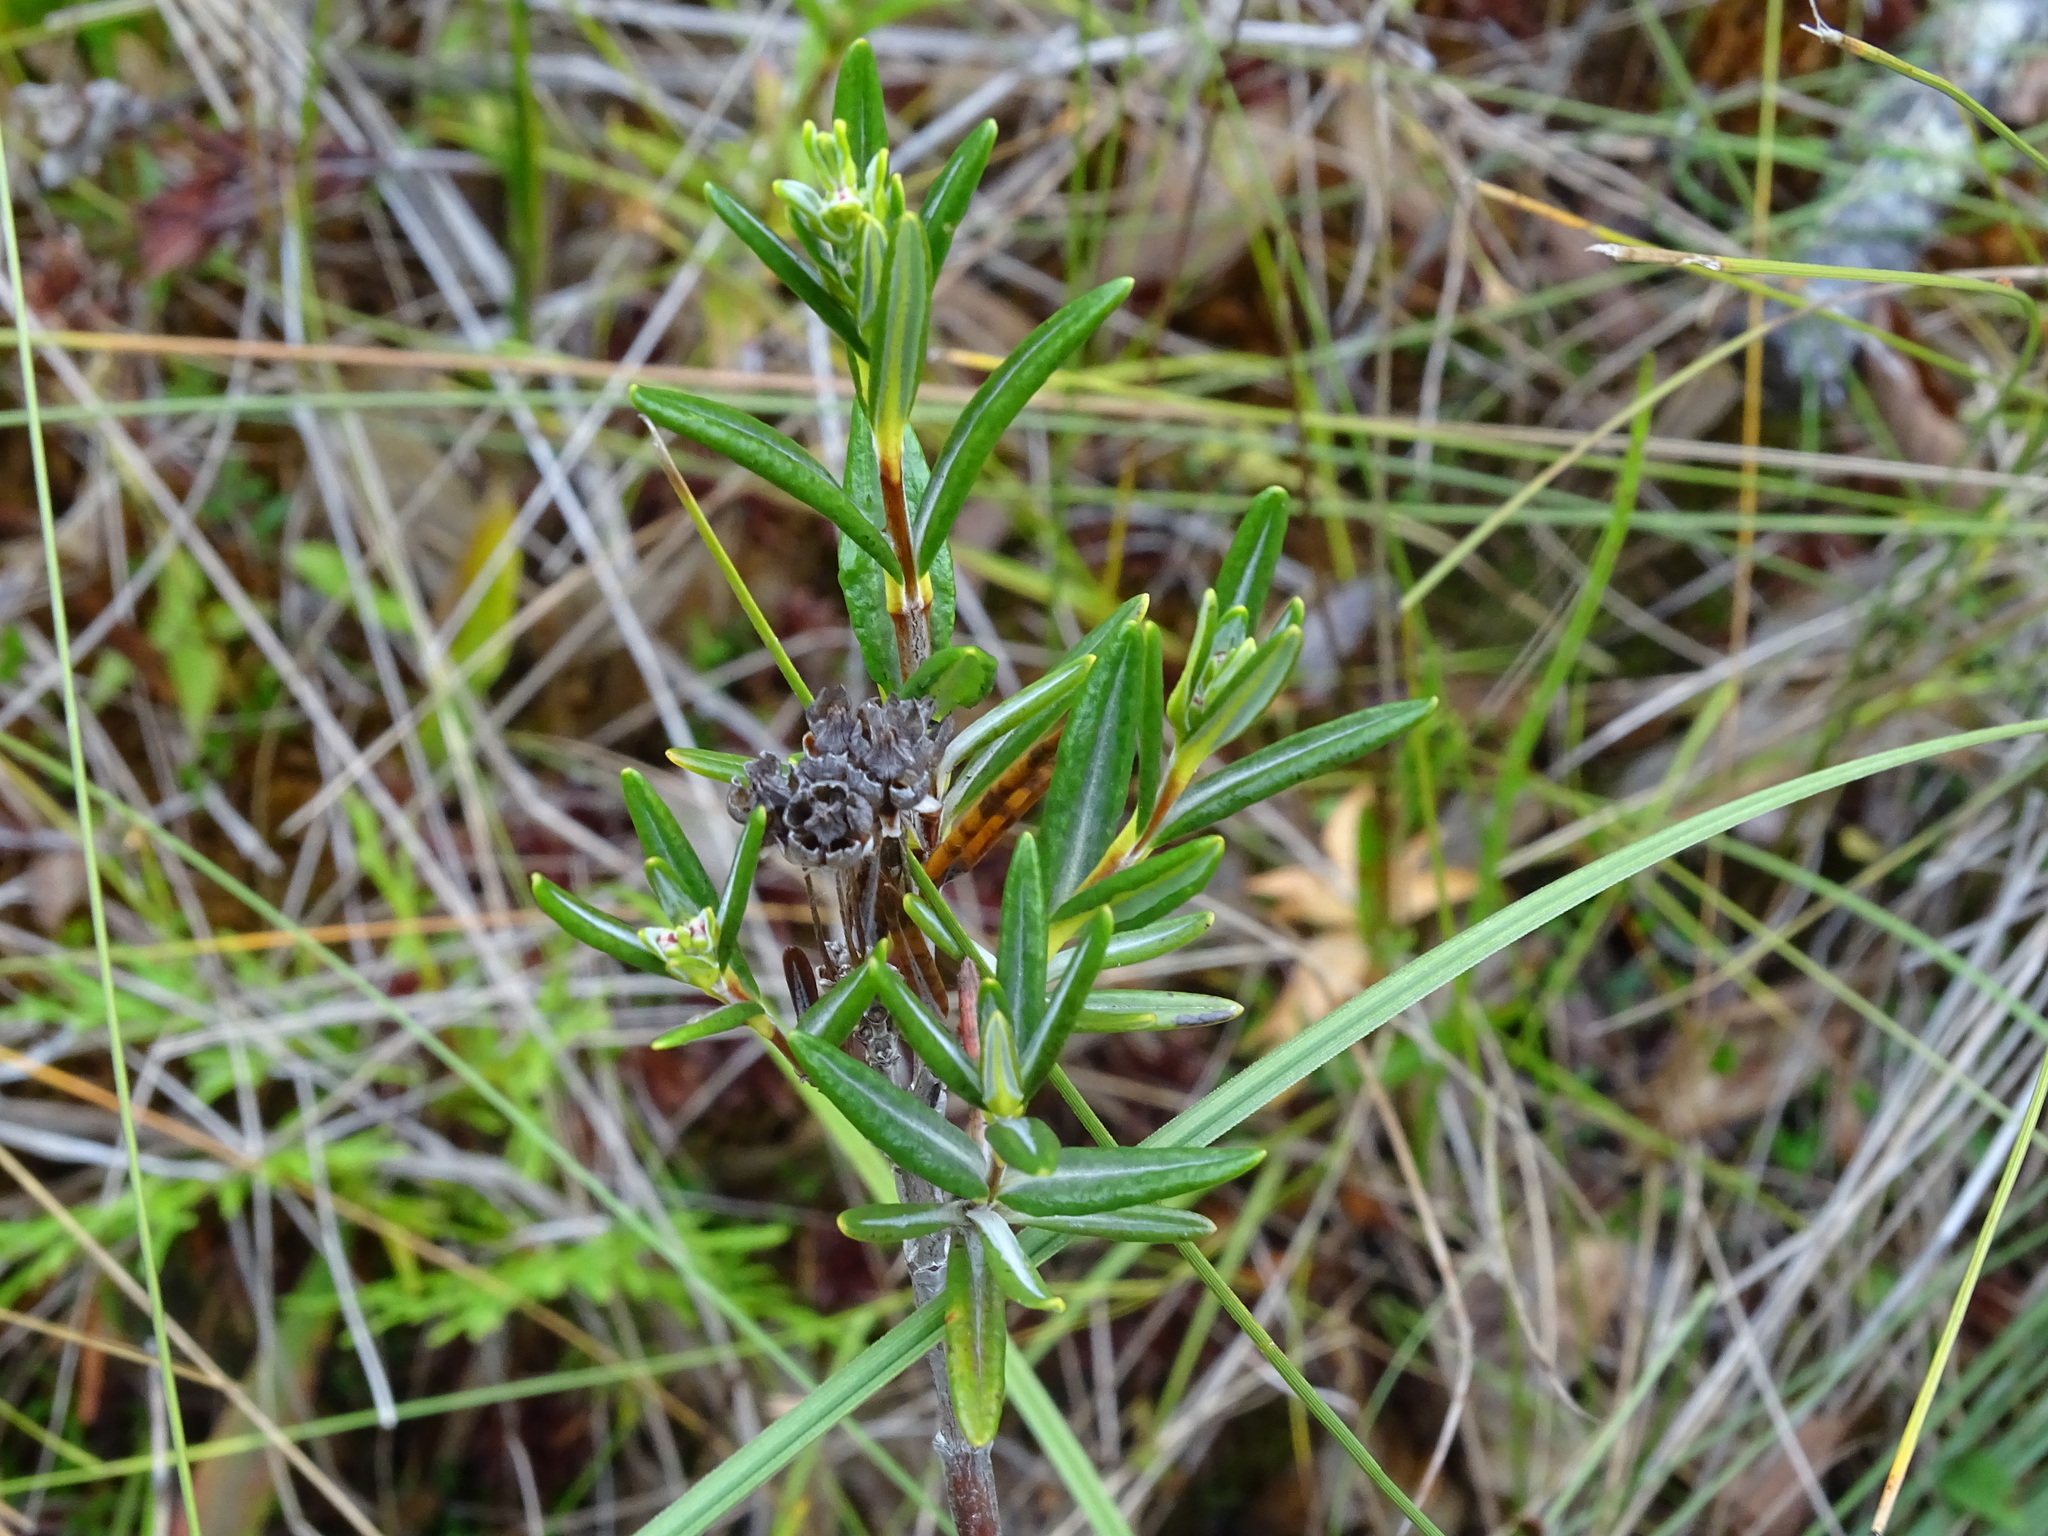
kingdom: Plantae
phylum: Tracheophyta
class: Magnoliopsida
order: Ericales
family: Ericaceae
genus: Kalmia
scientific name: Kalmia polifolia
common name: Bog-laurel
